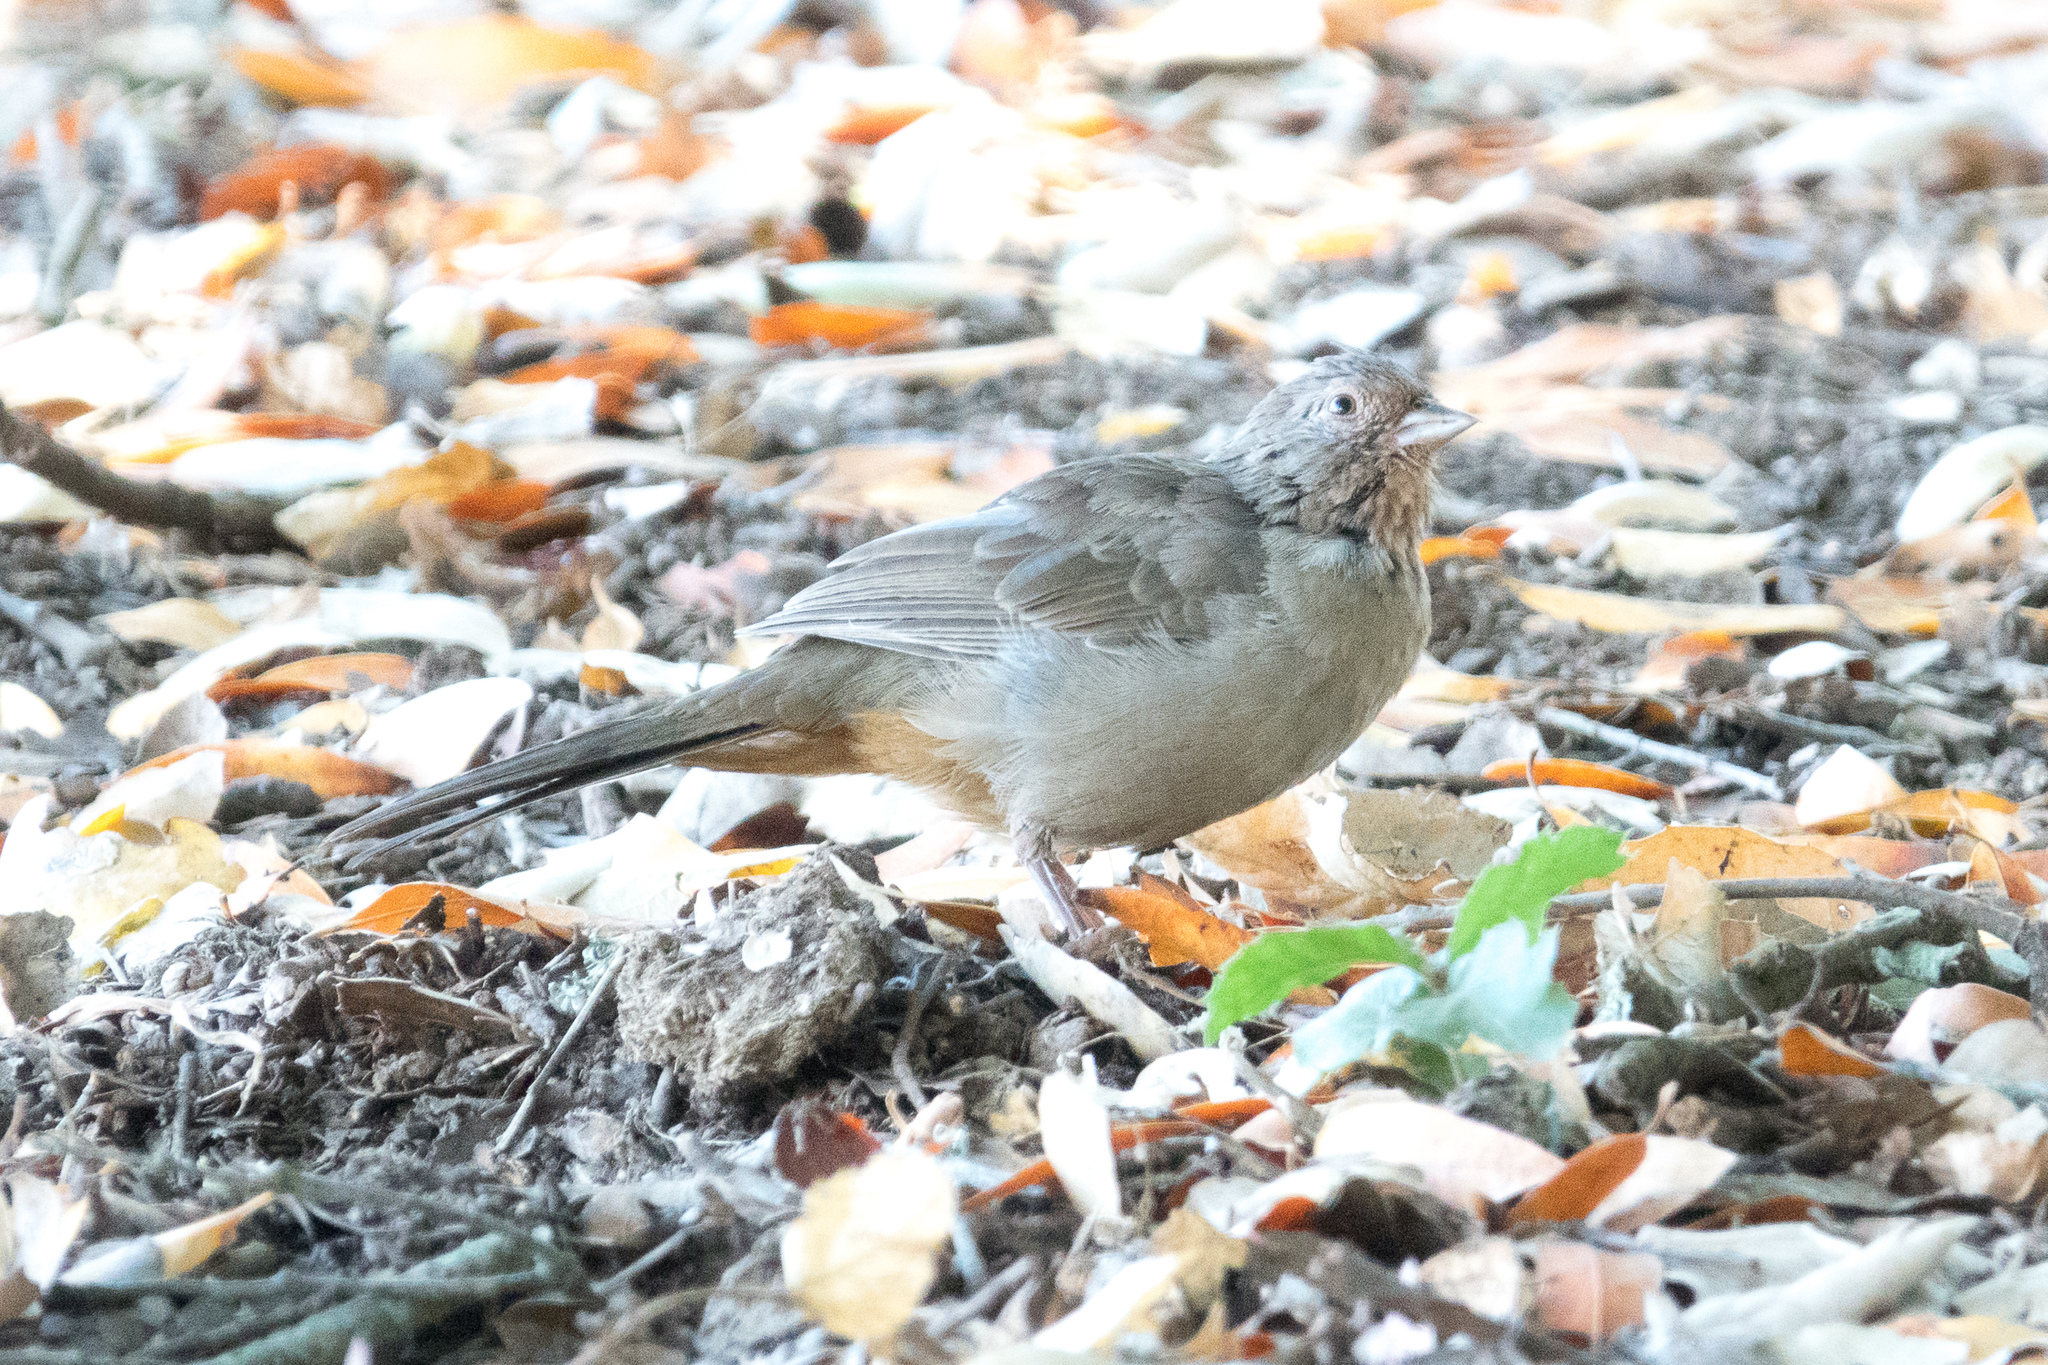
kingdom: Animalia
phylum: Chordata
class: Aves
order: Passeriformes
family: Passerellidae
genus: Melozone
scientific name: Melozone crissalis
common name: California towhee
